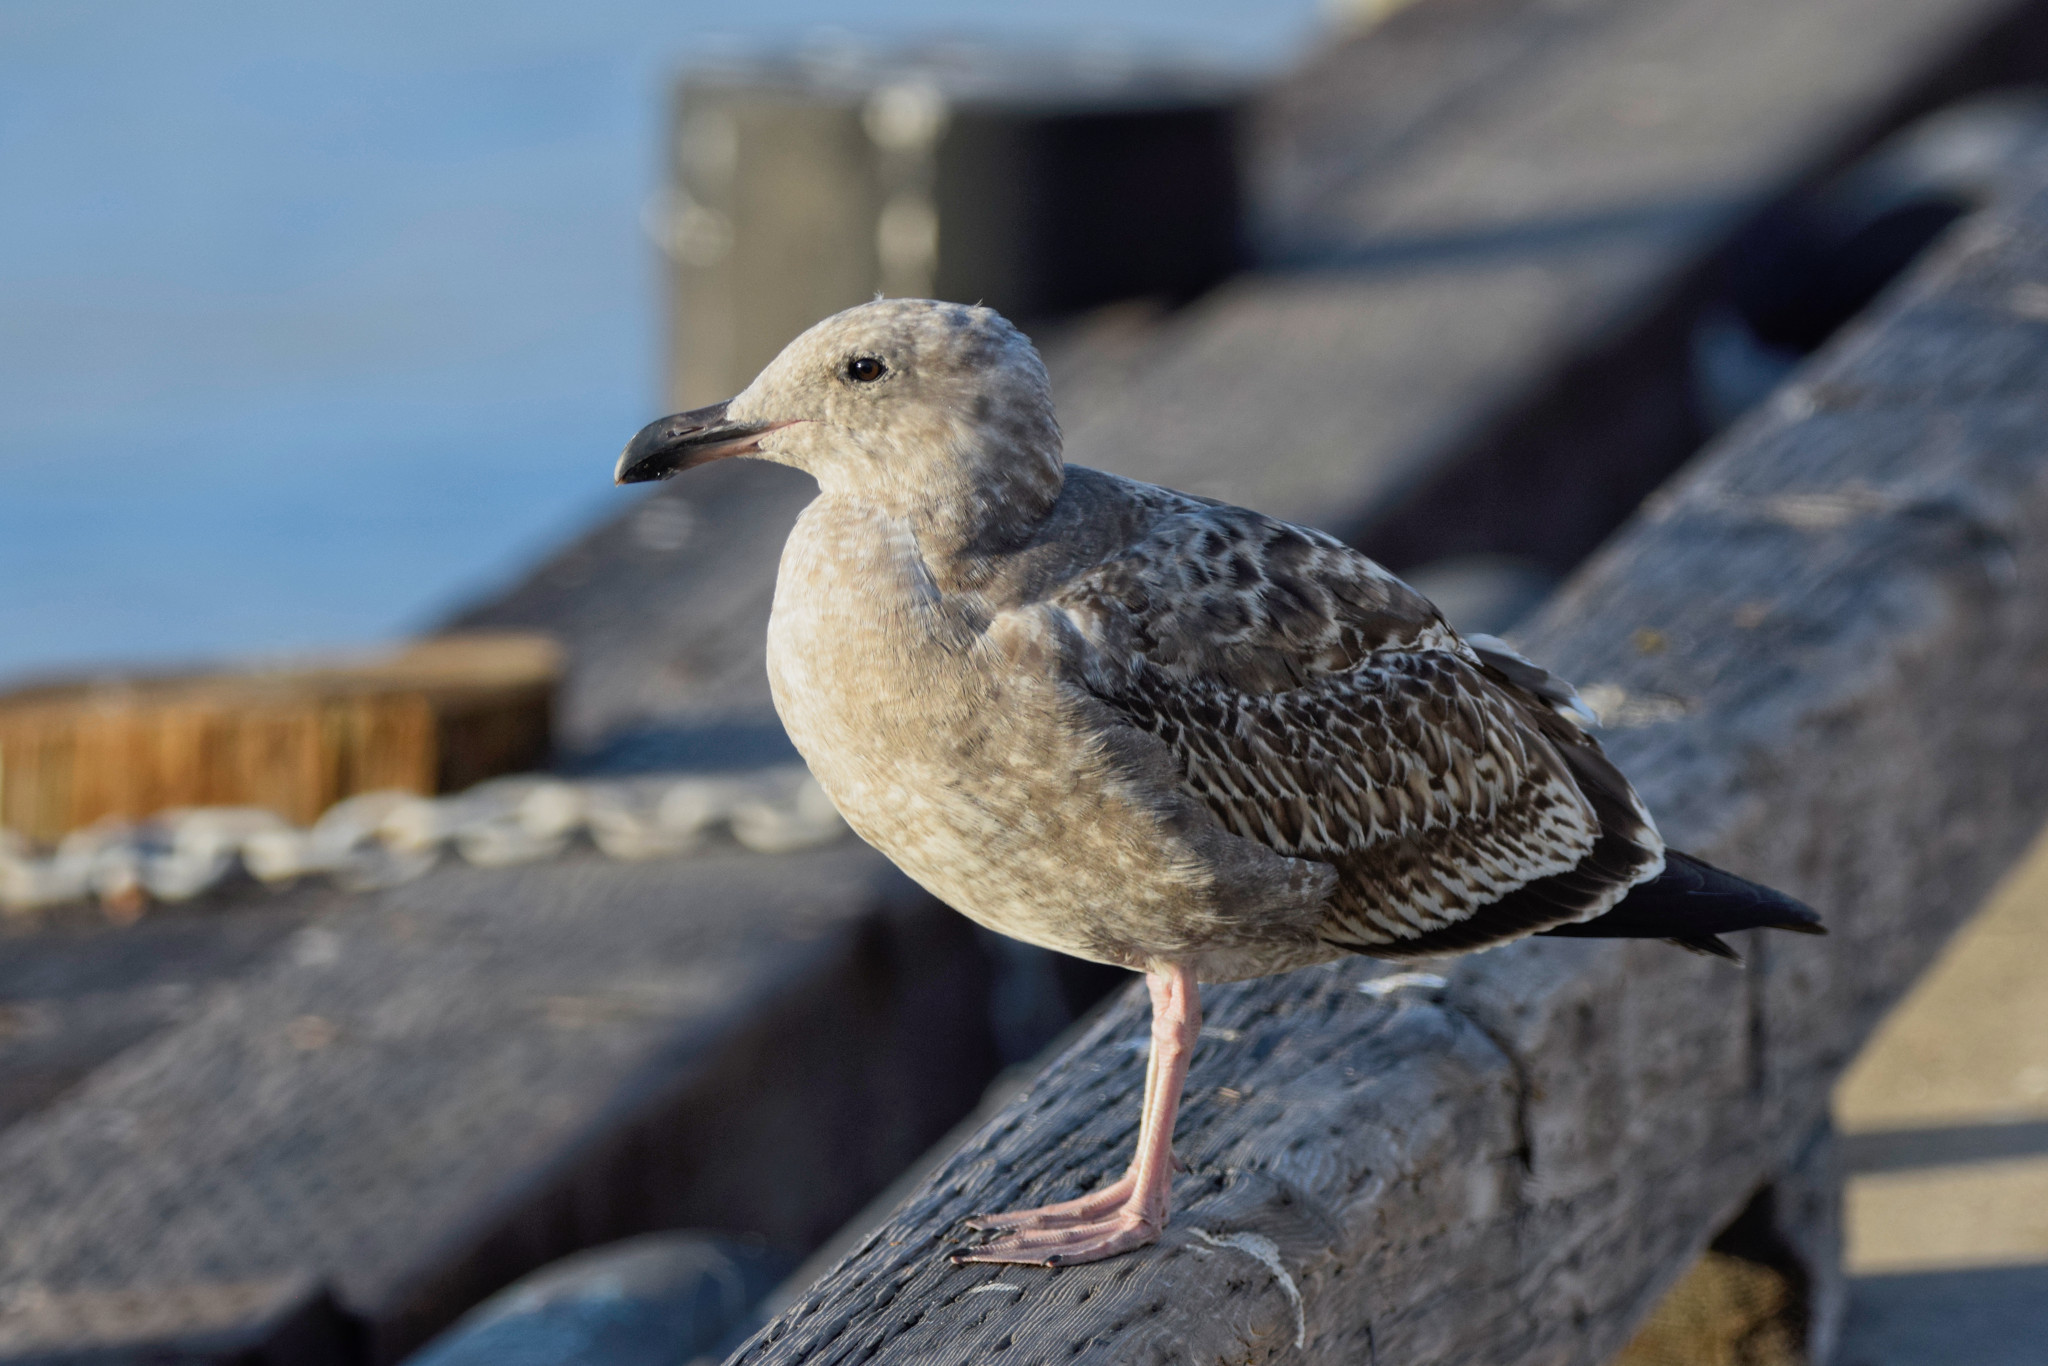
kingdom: Animalia
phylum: Chordata
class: Aves
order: Charadriiformes
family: Laridae
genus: Larus
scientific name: Larus occidentalis
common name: Western gull
